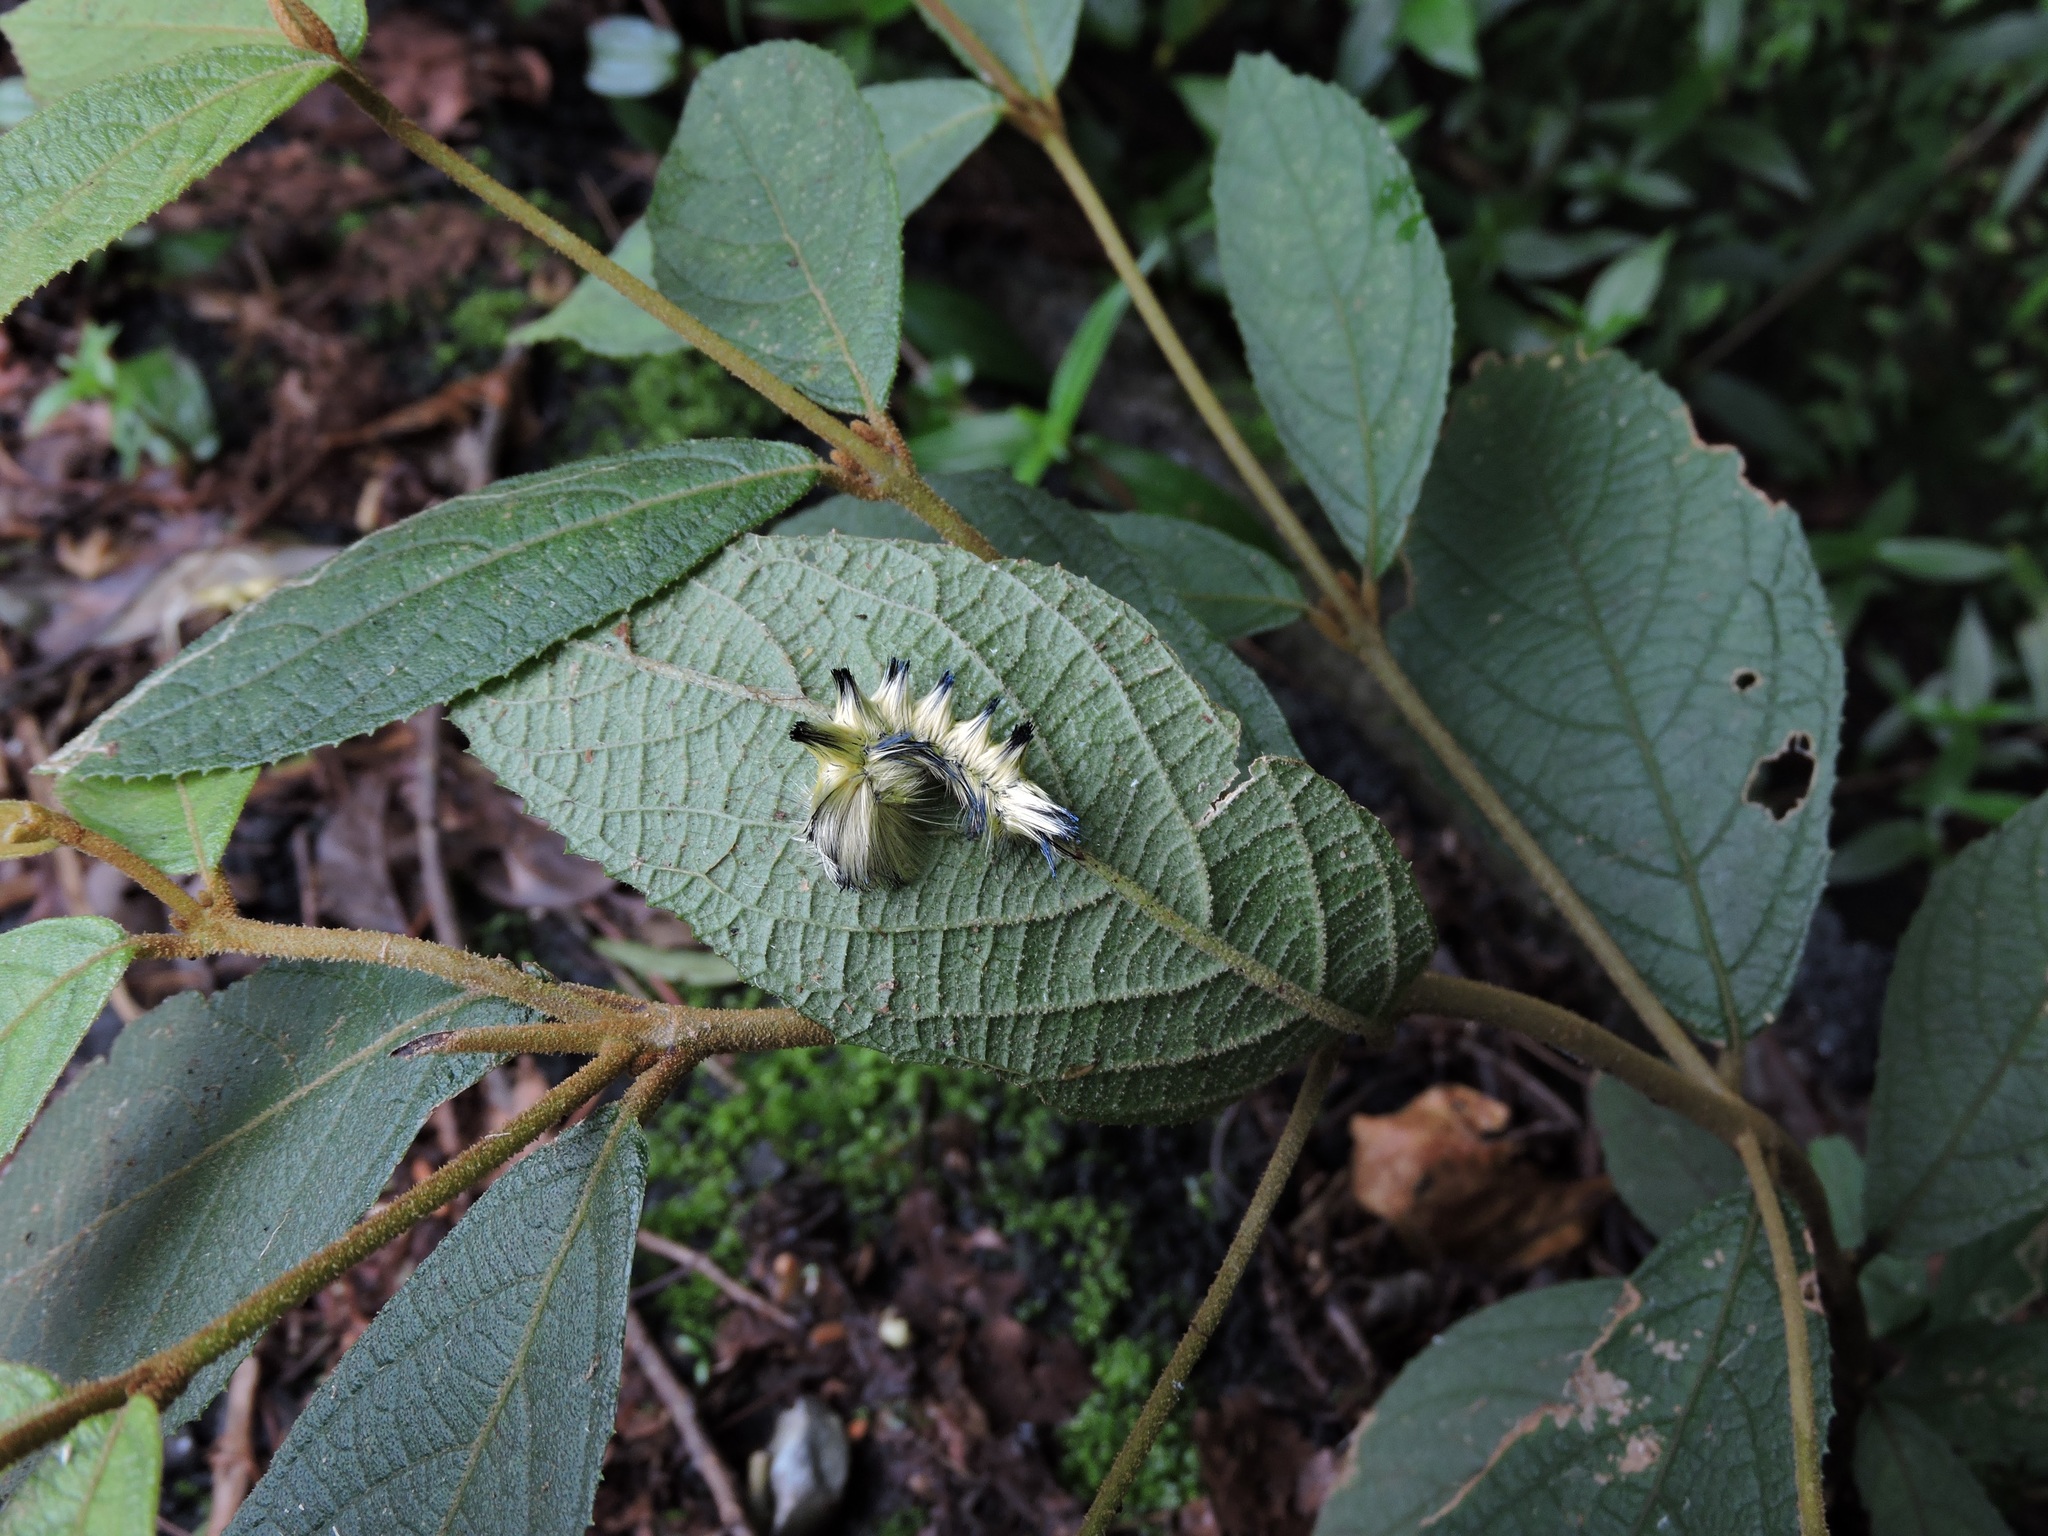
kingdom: Animalia
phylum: Arthropoda
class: Insecta
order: Lepidoptera
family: Eupterotidae
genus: Palirisa
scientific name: Palirisa cervina
